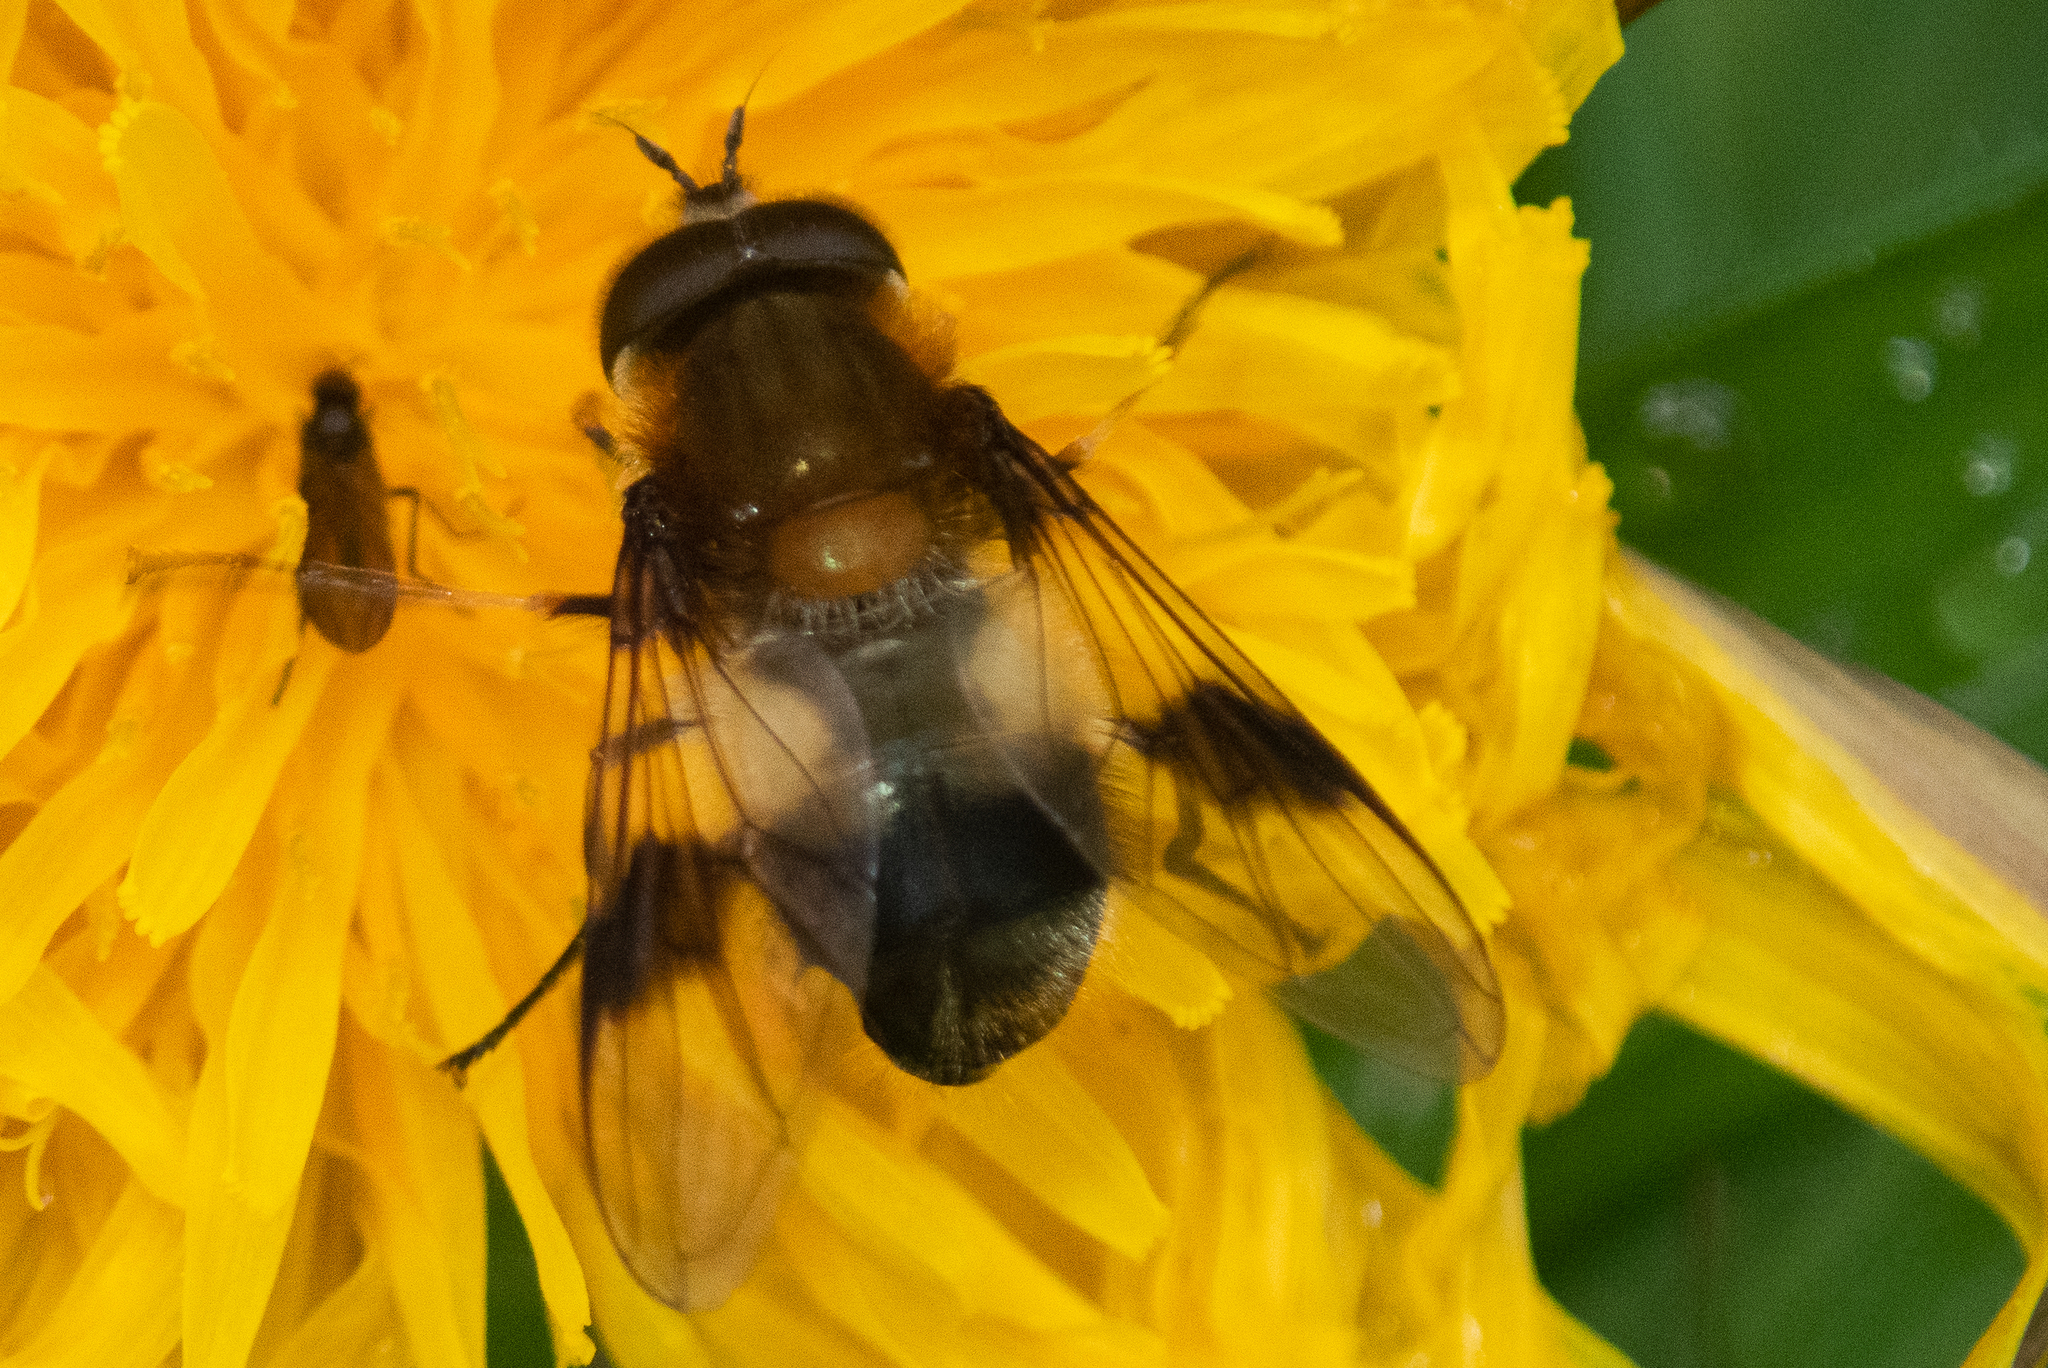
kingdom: Animalia
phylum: Arthropoda
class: Insecta
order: Diptera
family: Syrphidae
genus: Leucozona
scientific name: Leucozona lucorum
